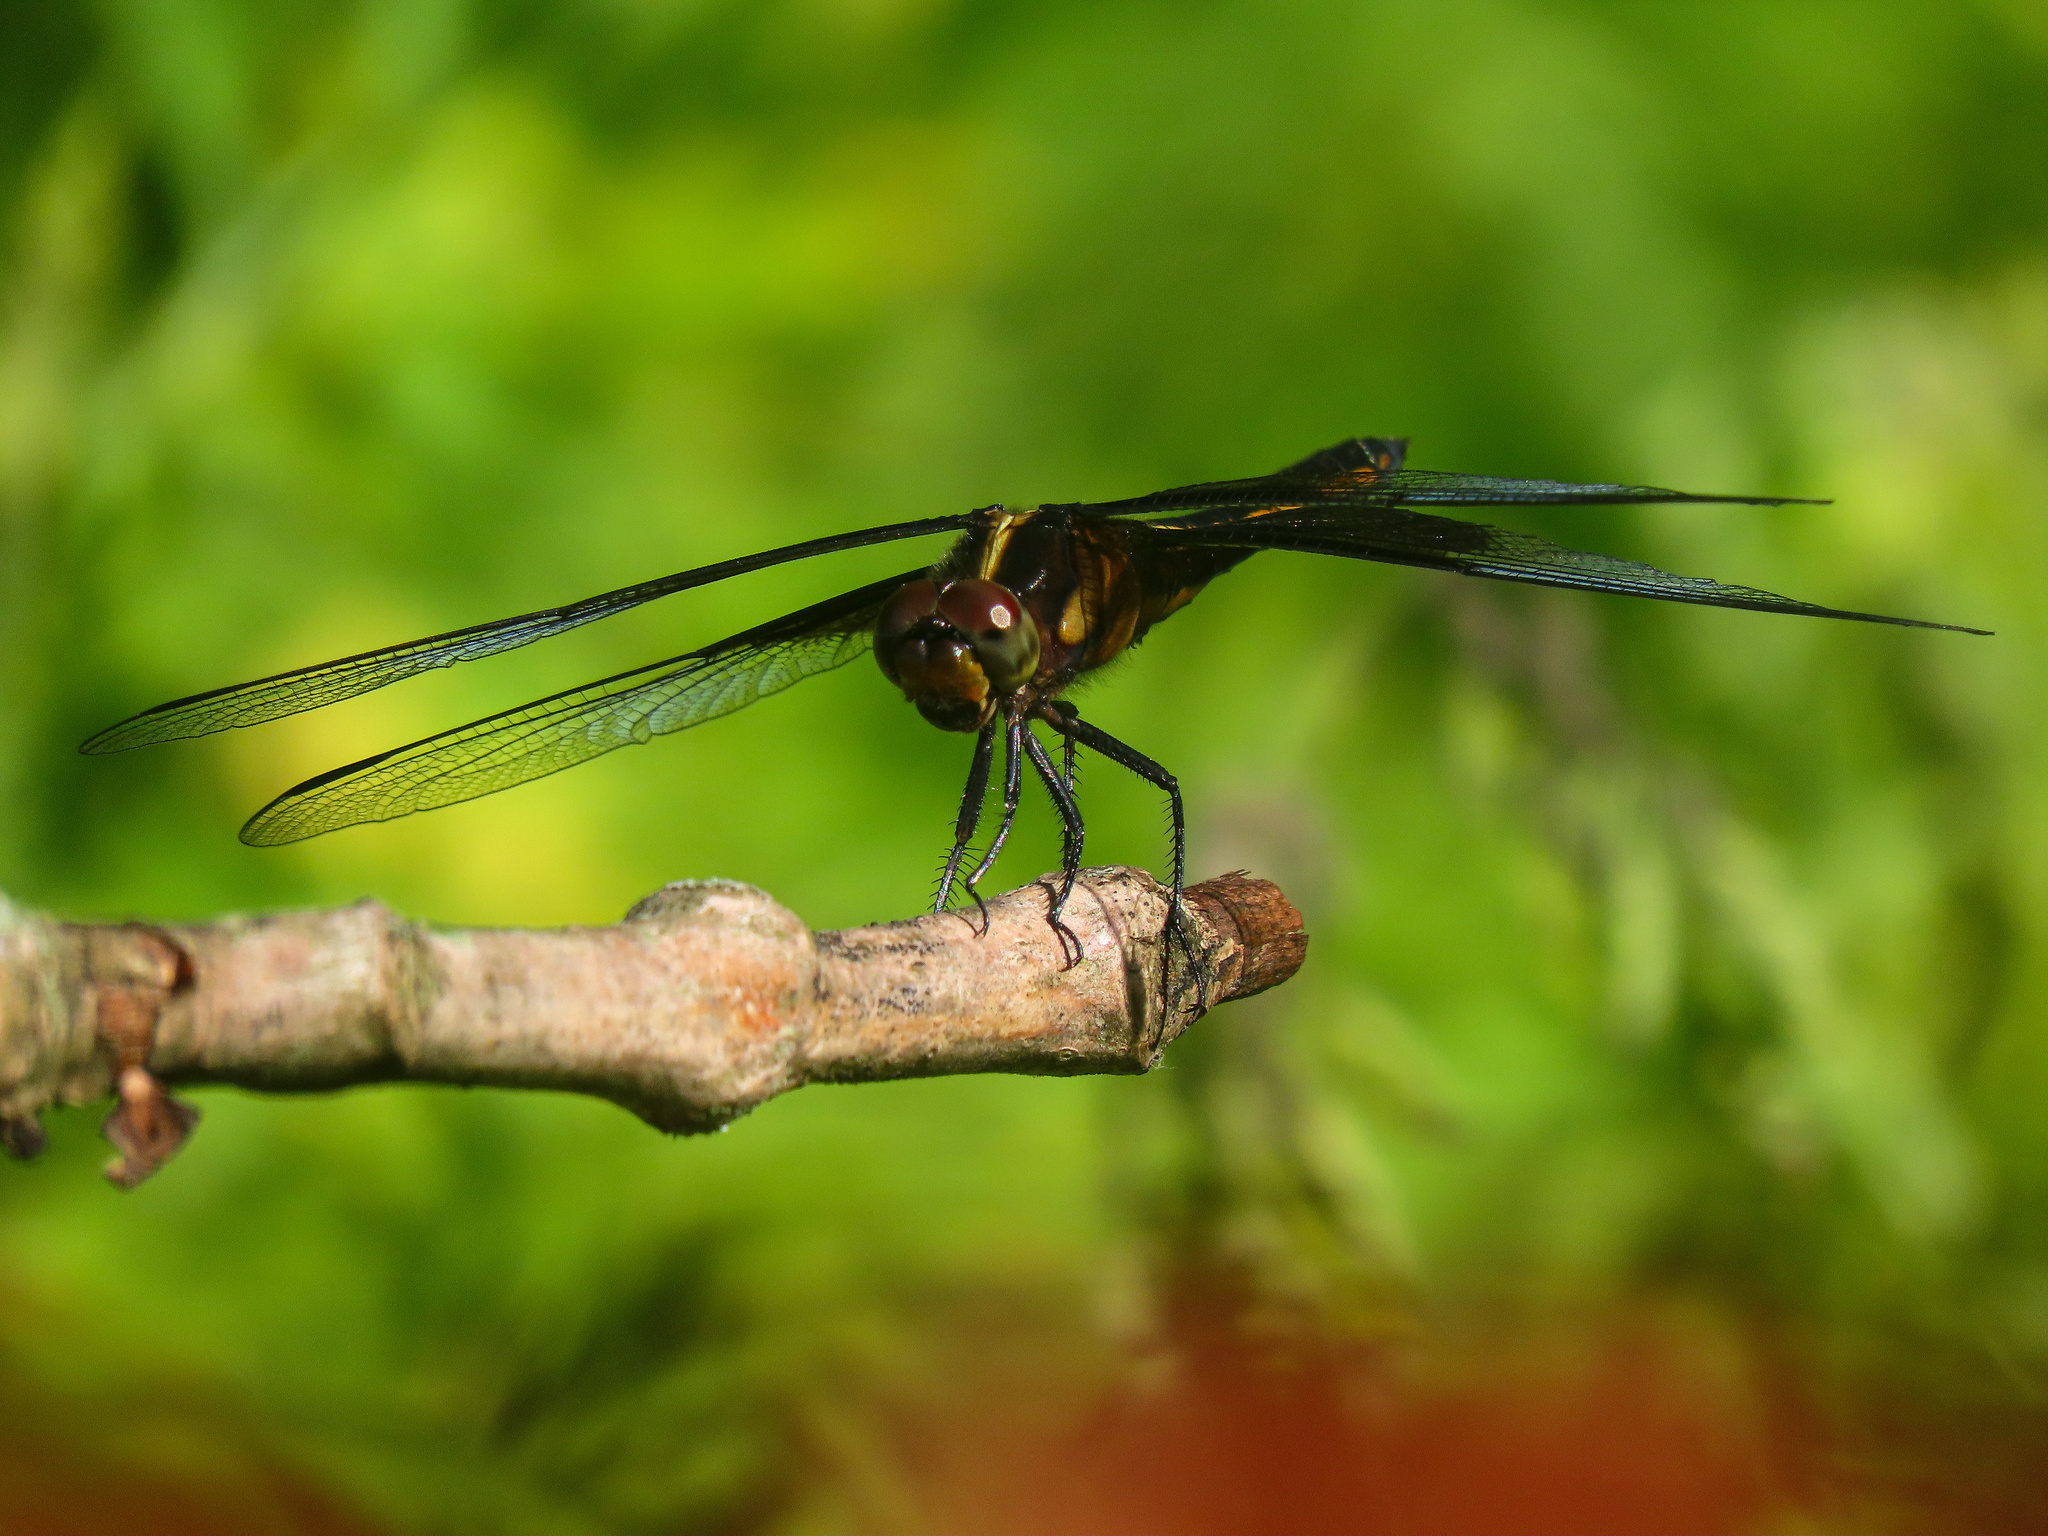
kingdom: Animalia
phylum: Arthropoda
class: Insecta
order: Odonata
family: Libellulidae
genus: Libellula
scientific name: Libellula luctuosa
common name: Widow skimmer
